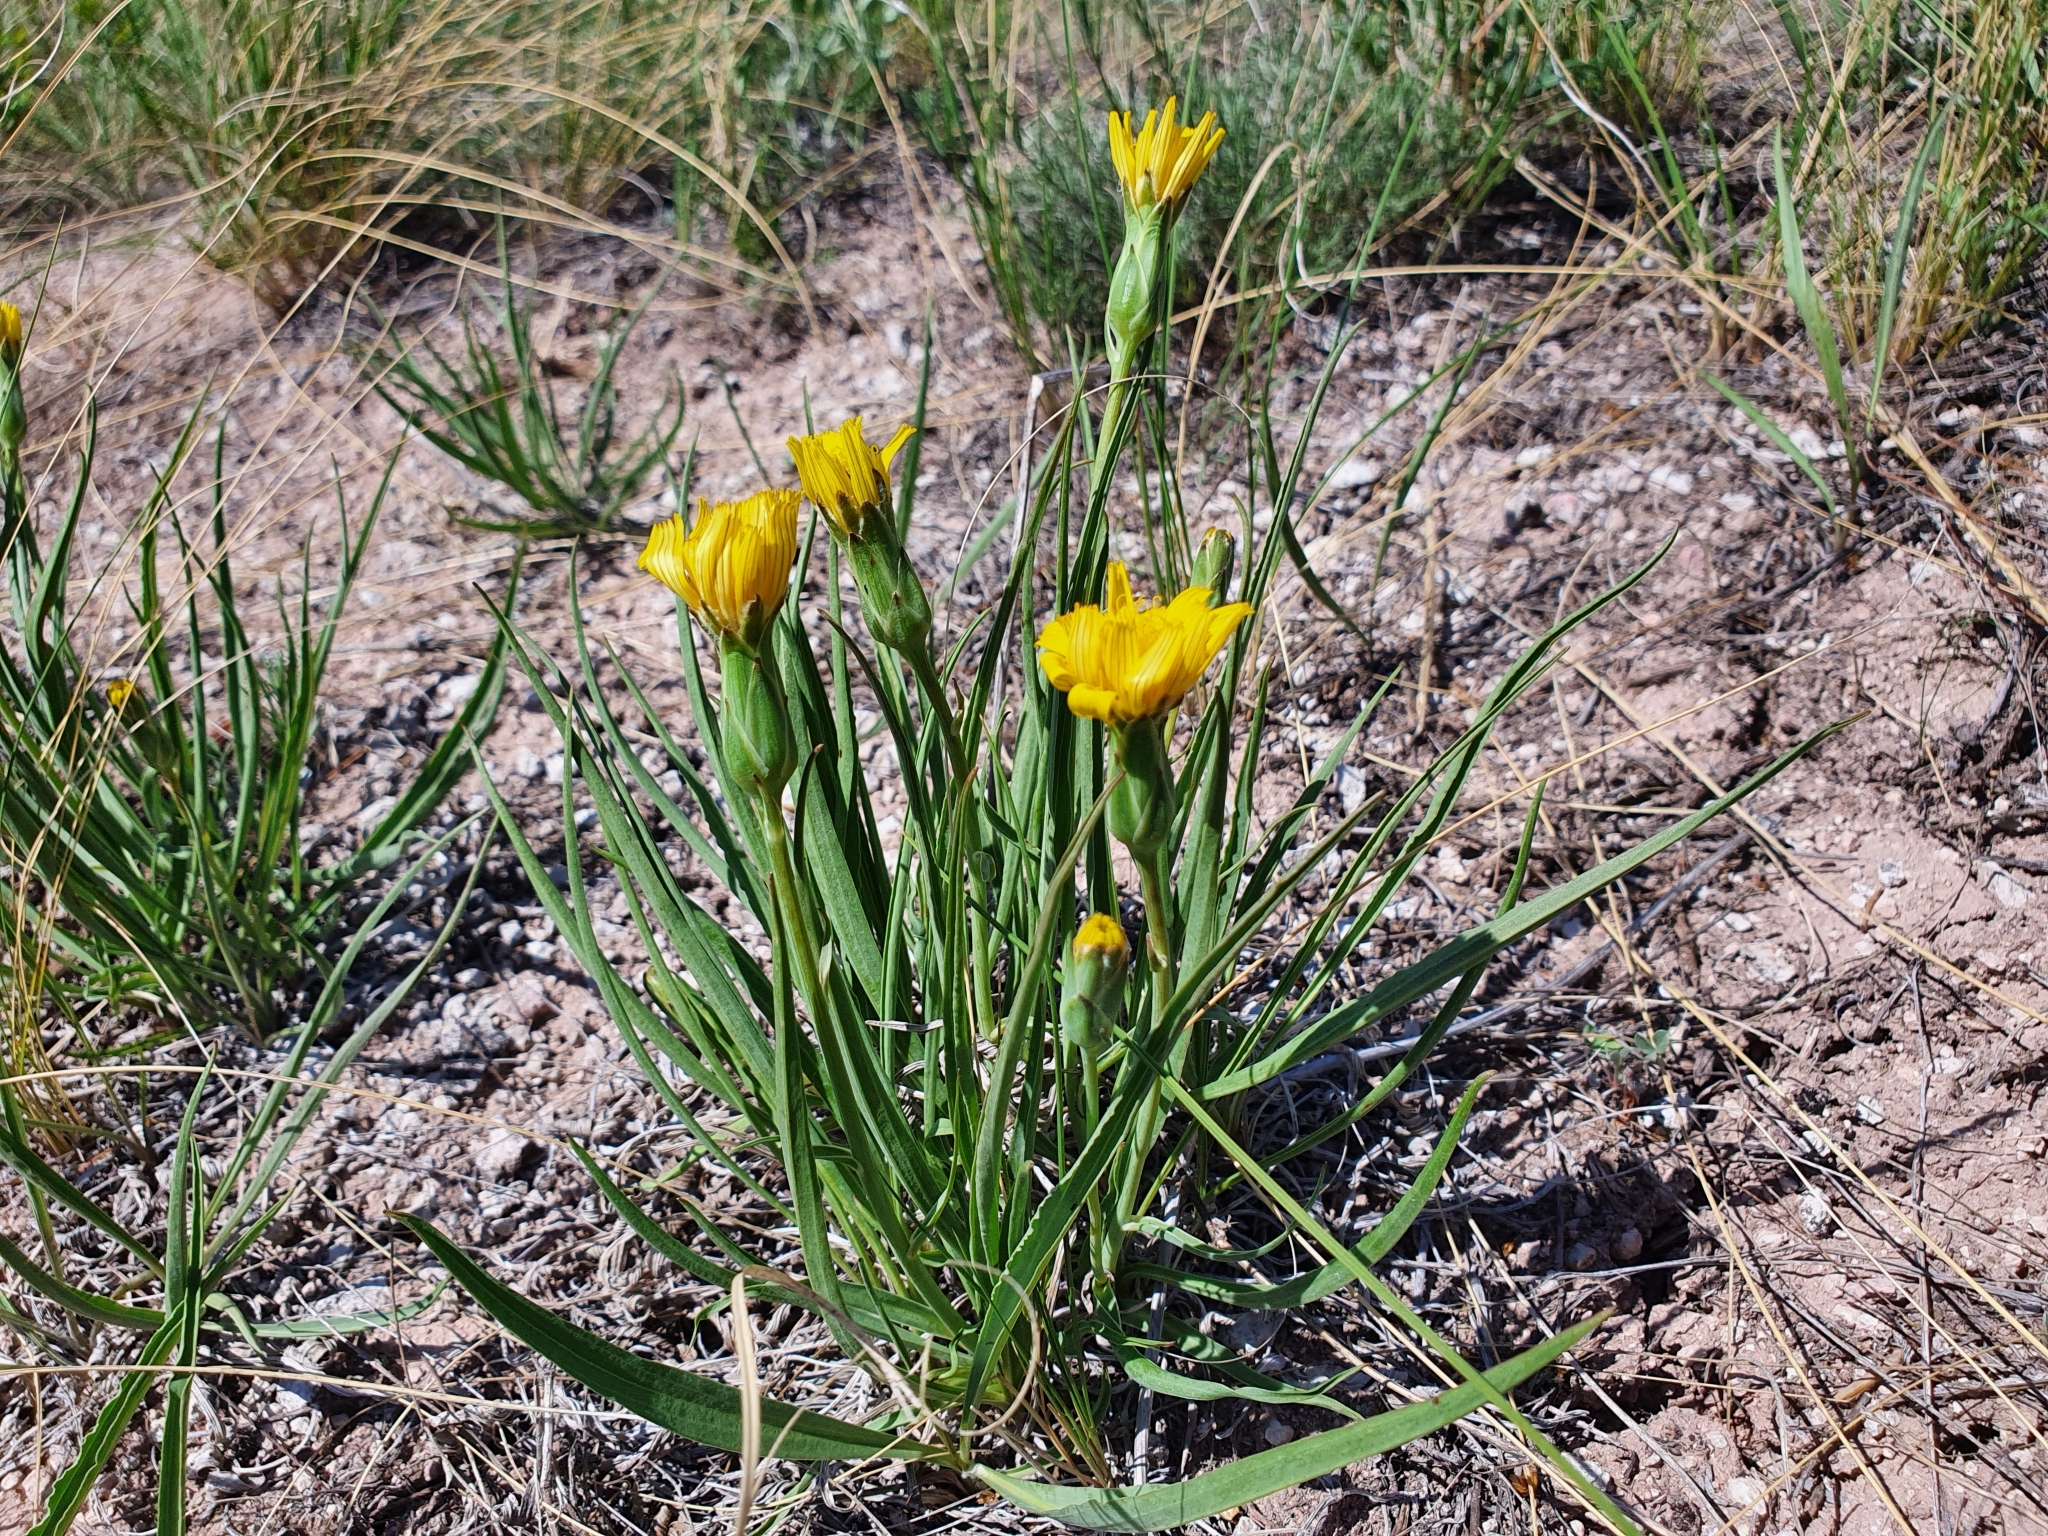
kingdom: Plantae
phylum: Tracheophyta
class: Magnoliopsida
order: Asterales
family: Asteraceae
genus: Takhtajaniantha
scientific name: Takhtajaniantha austriaca
